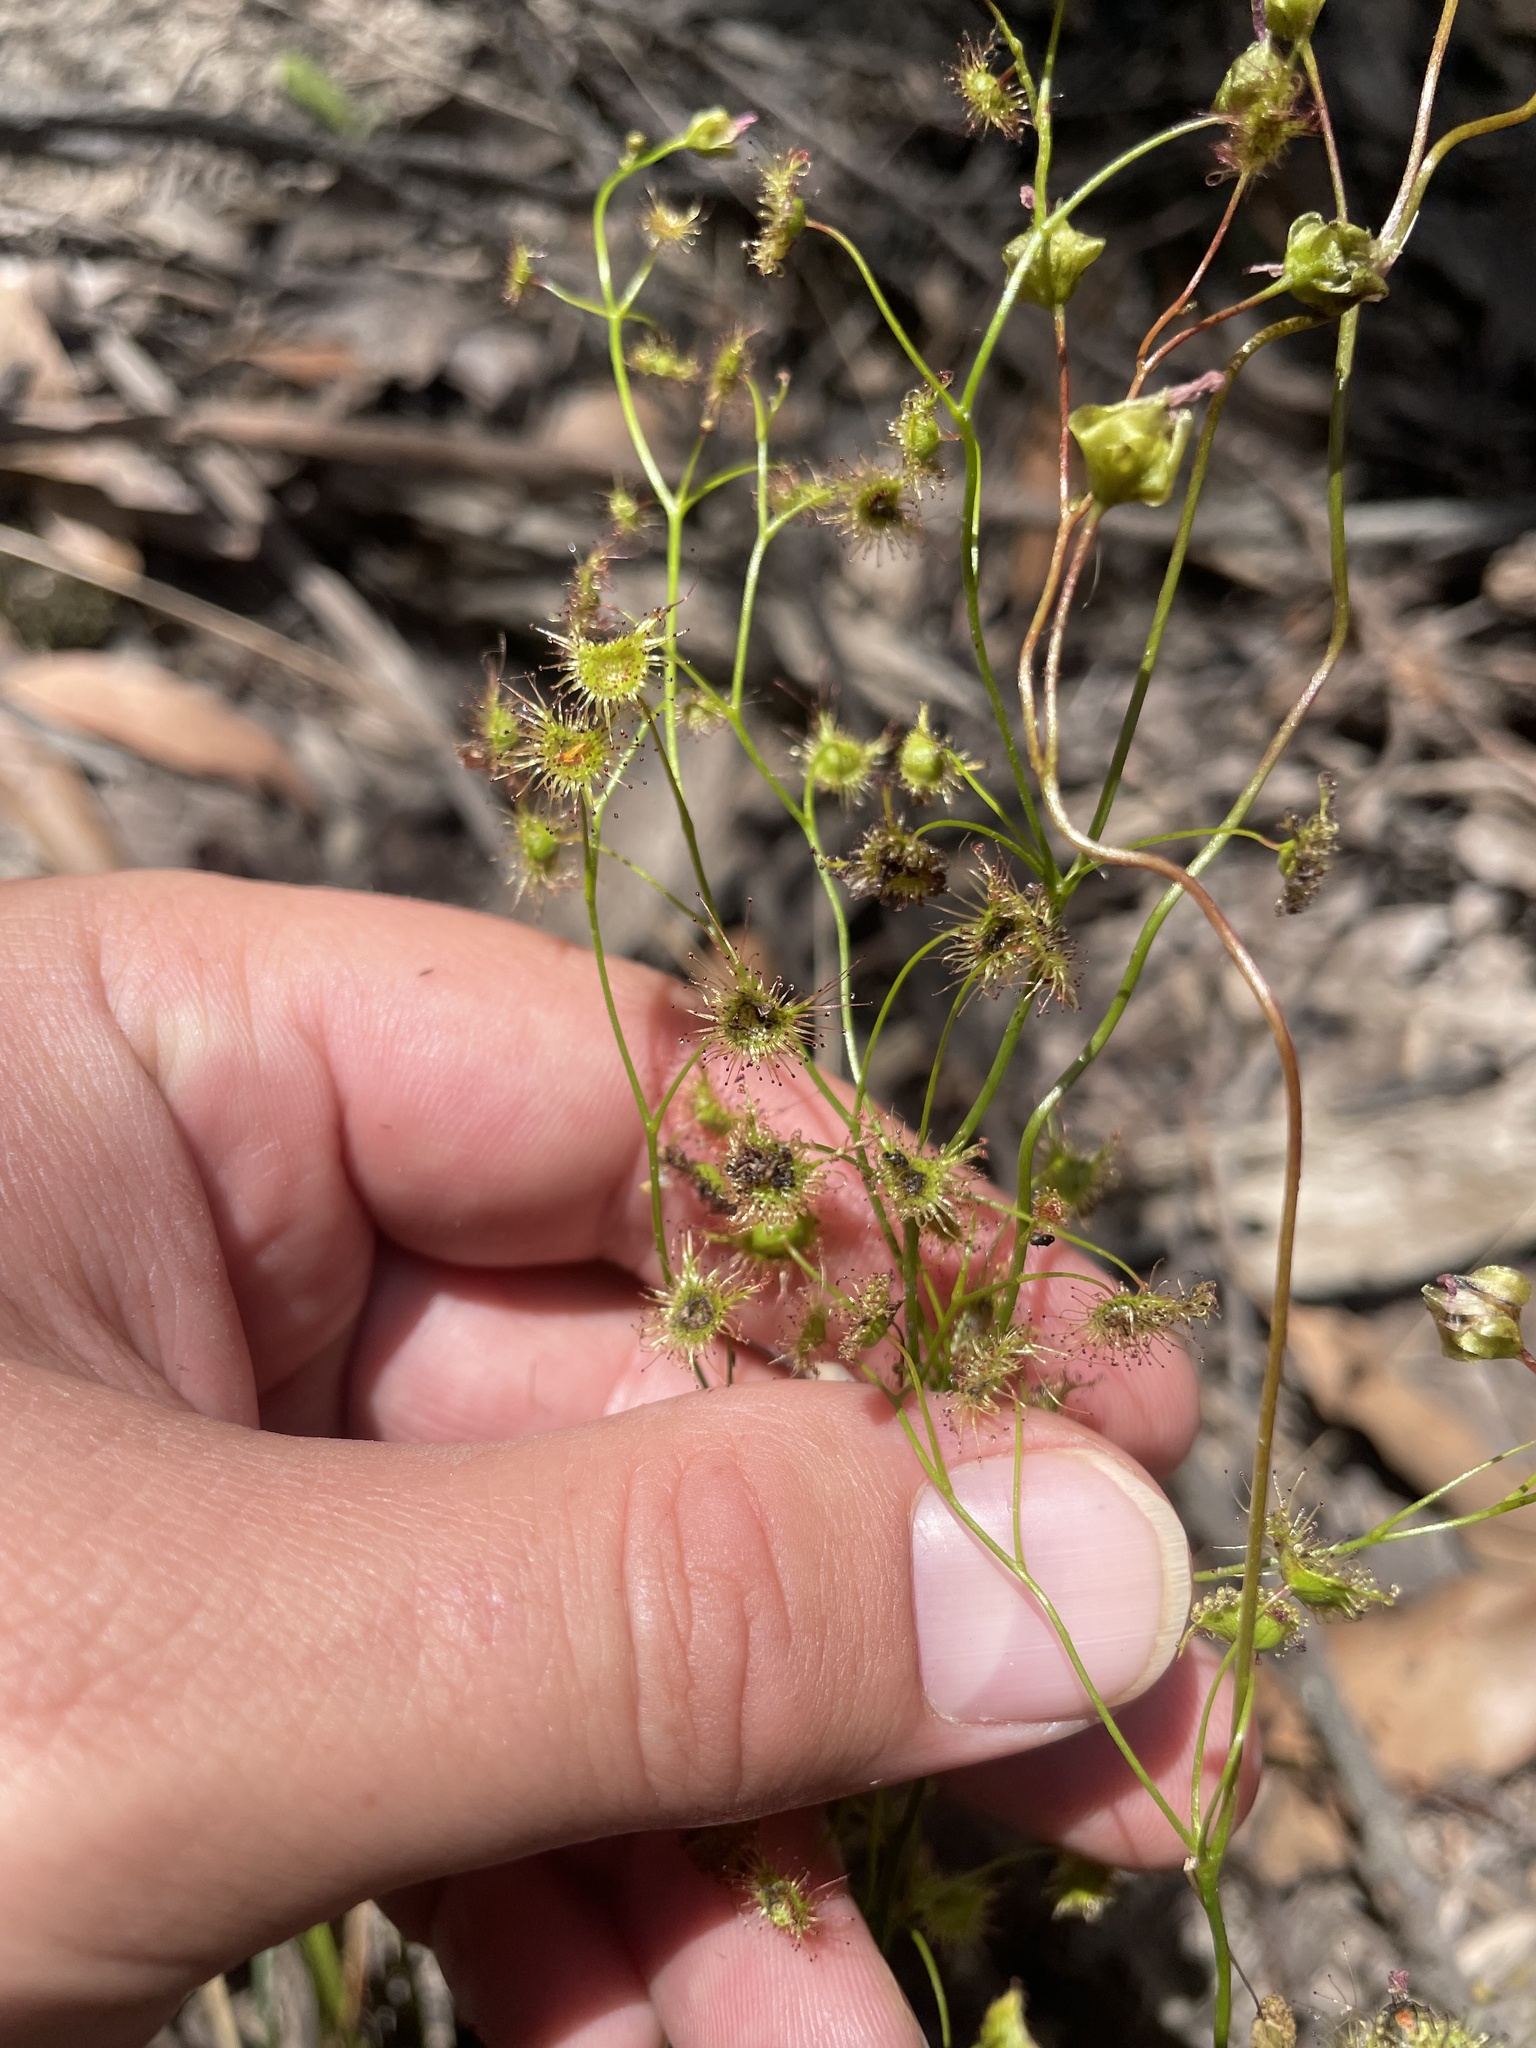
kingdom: Plantae
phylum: Tracheophyta
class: Magnoliopsida
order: Caryophyllales
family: Droseraceae
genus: Drosera
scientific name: Drosera peltata
